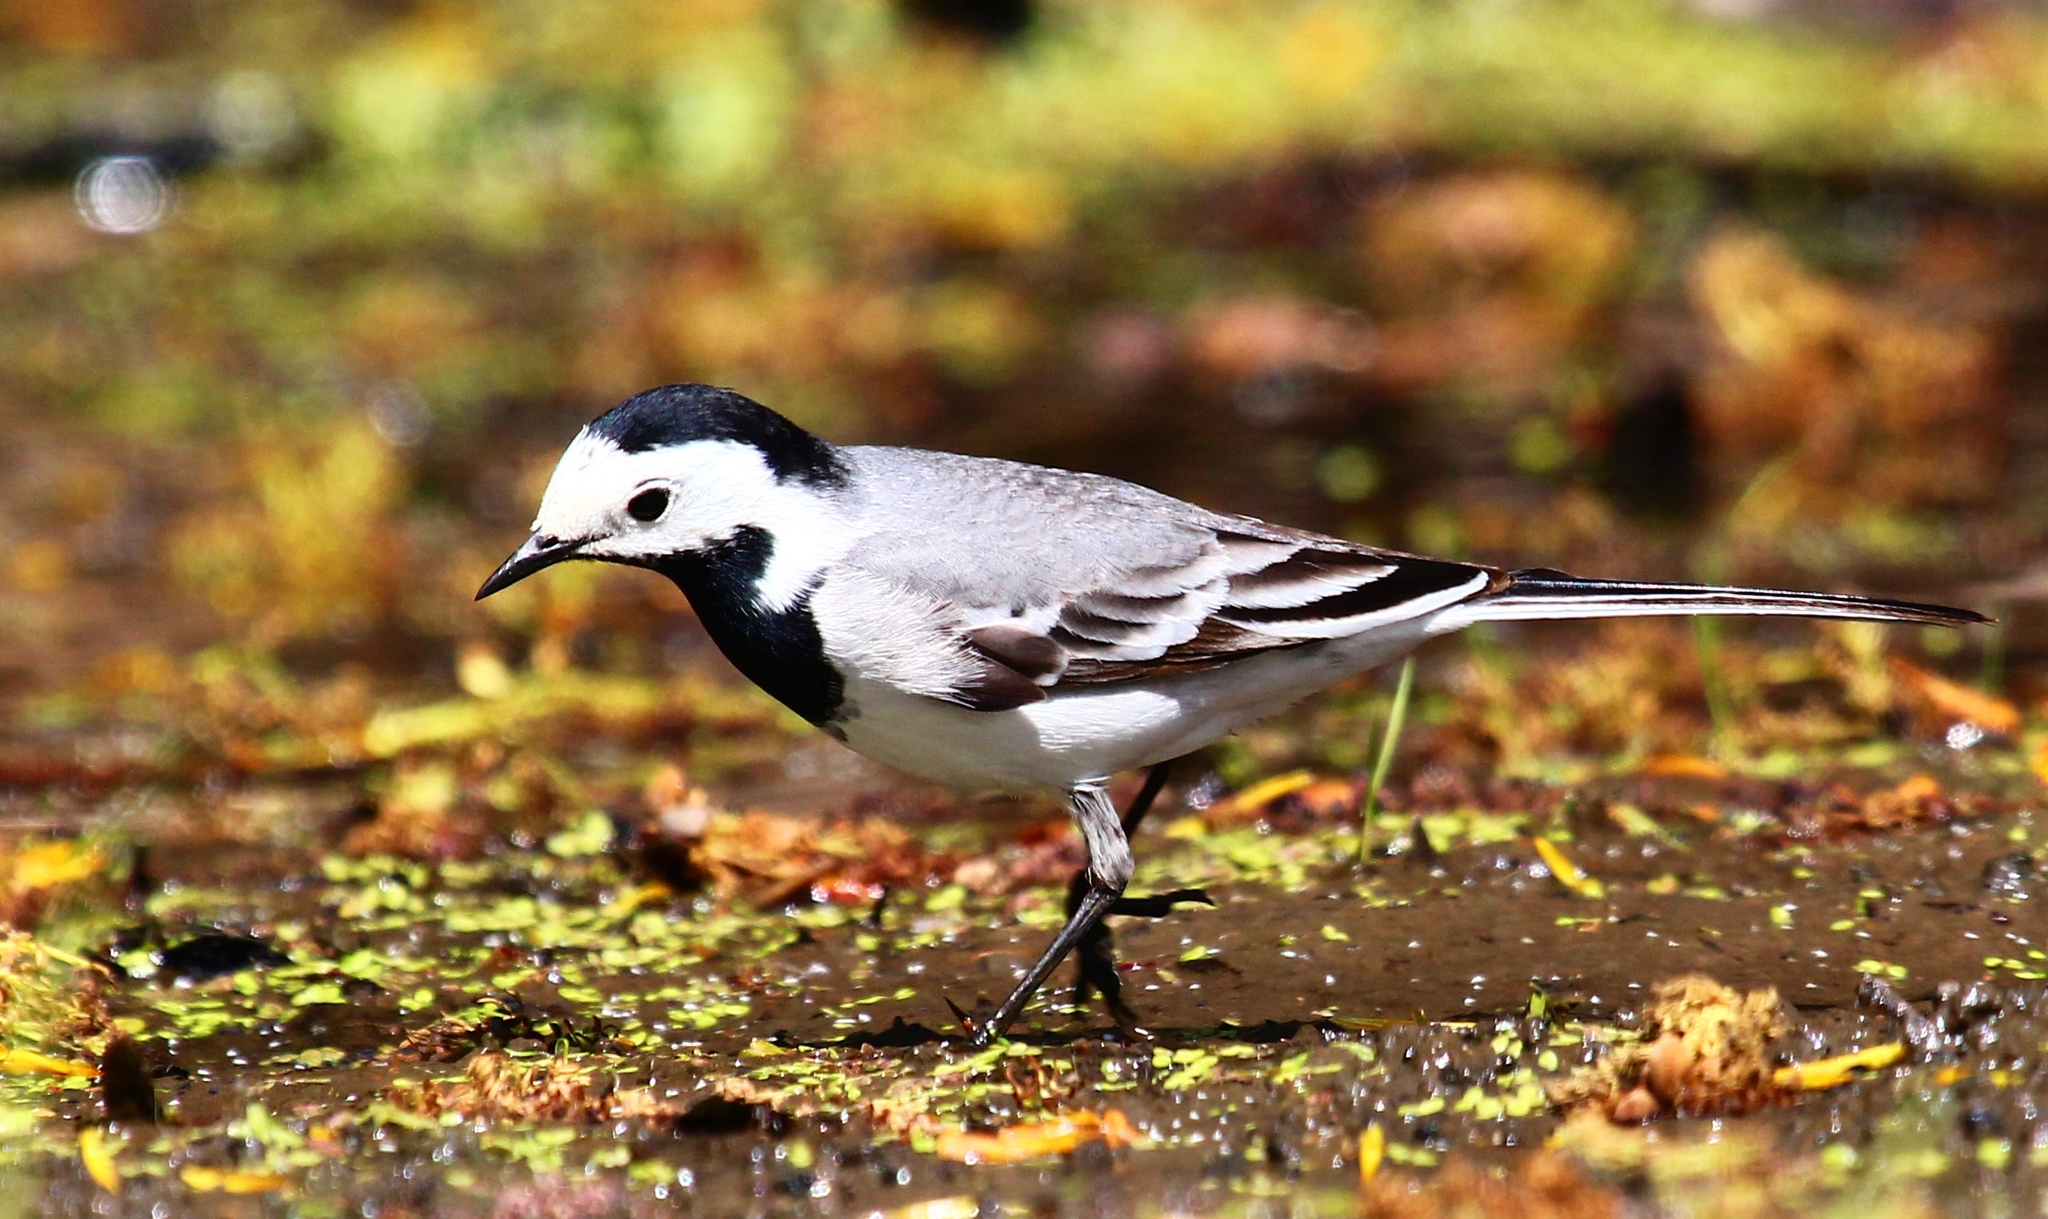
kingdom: Animalia
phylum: Chordata
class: Aves
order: Passeriformes
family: Motacillidae
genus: Motacilla
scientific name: Motacilla alba
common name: White wagtail
